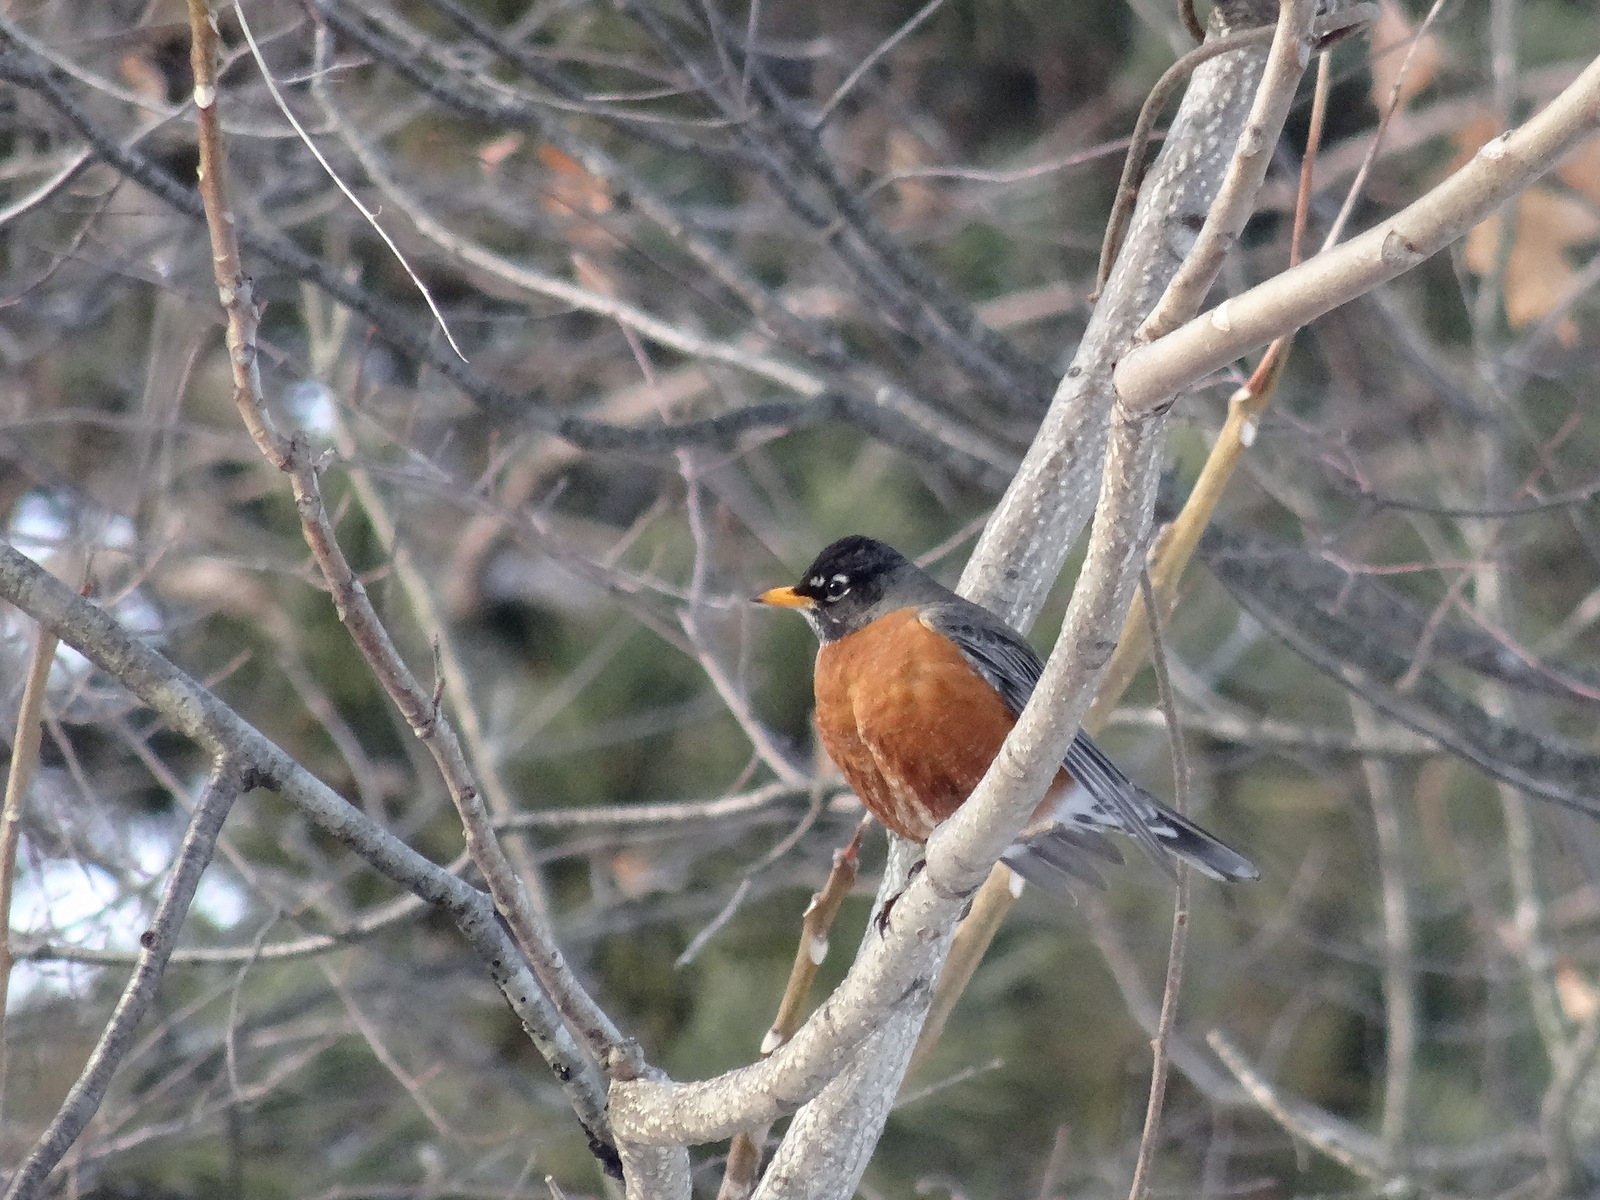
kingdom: Animalia
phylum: Chordata
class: Aves
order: Passeriformes
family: Turdidae
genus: Turdus
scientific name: Turdus migratorius
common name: American robin
